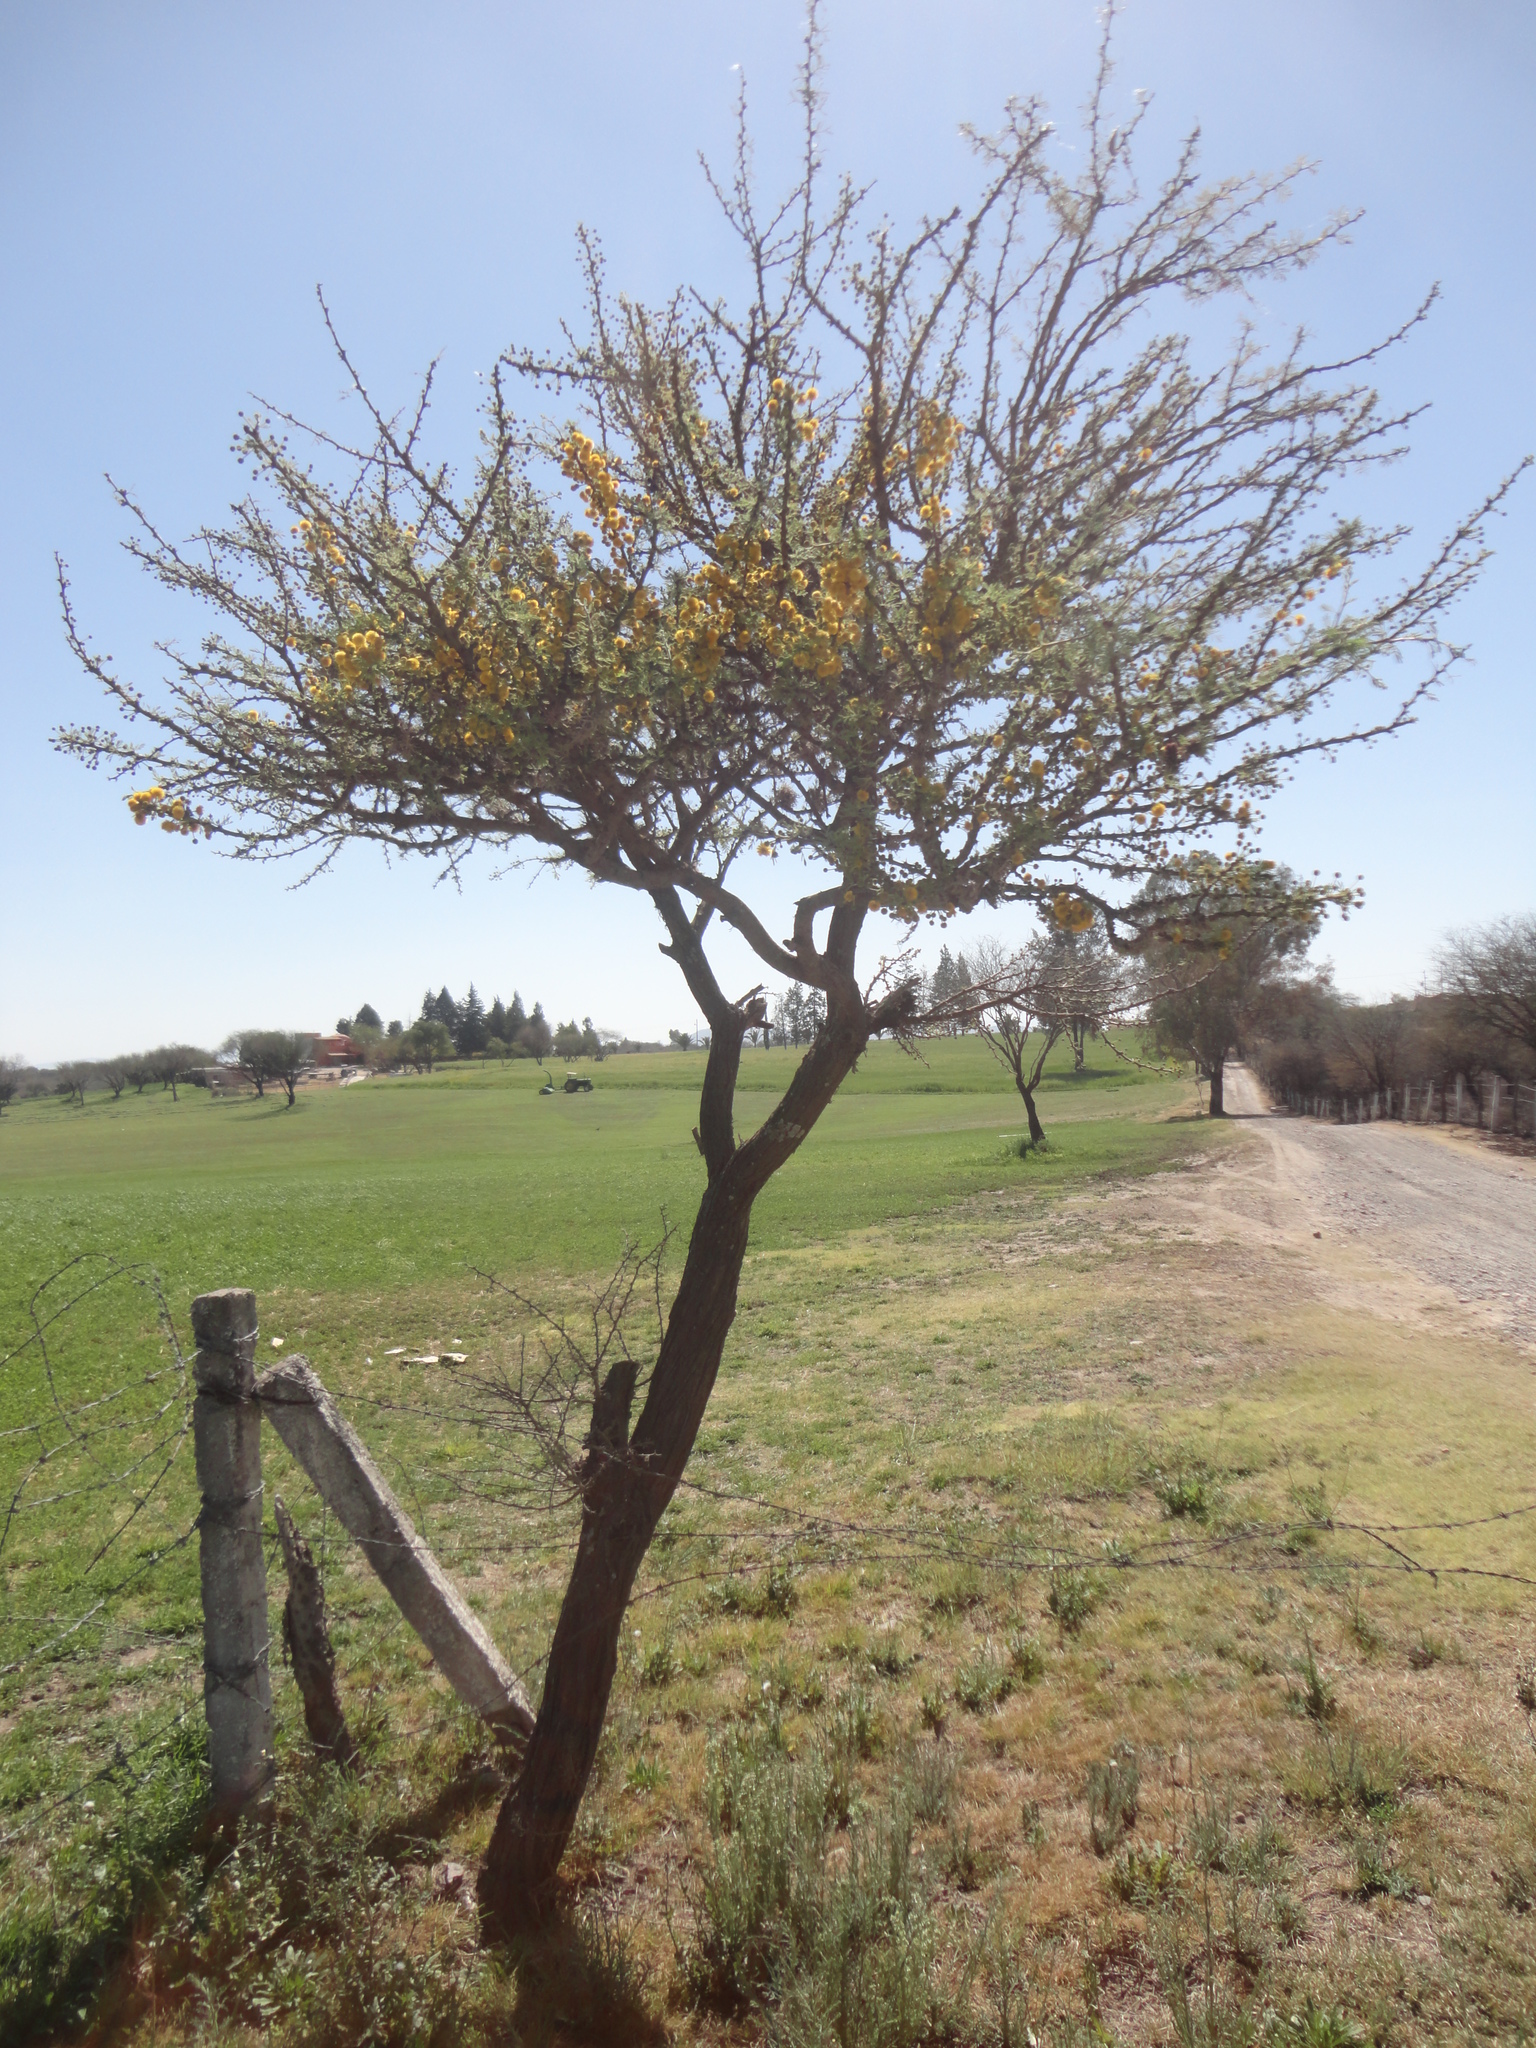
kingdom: Plantae
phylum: Tracheophyta
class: Magnoliopsida
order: Fabales
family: Fabaceae
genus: Vachellia
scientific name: Vachellia schaffneri
